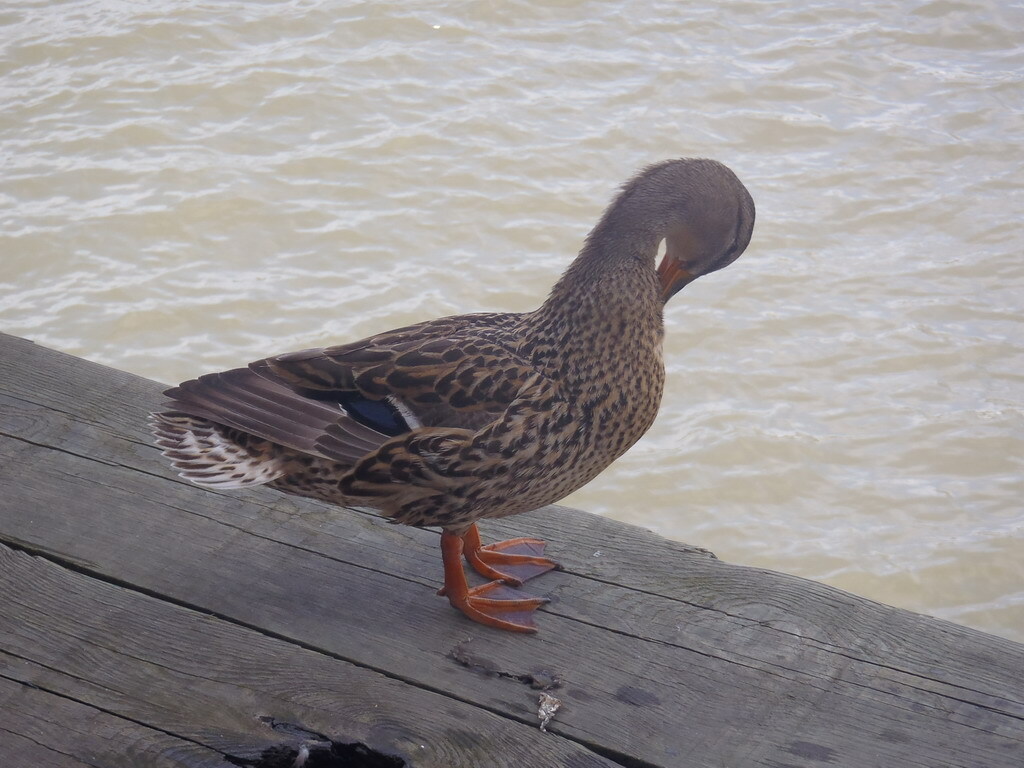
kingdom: Animalia
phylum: Chordata
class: Aves
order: Anseriformes
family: Anatidae
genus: Anas
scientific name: Anas platyrhynchos
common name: Mallard
